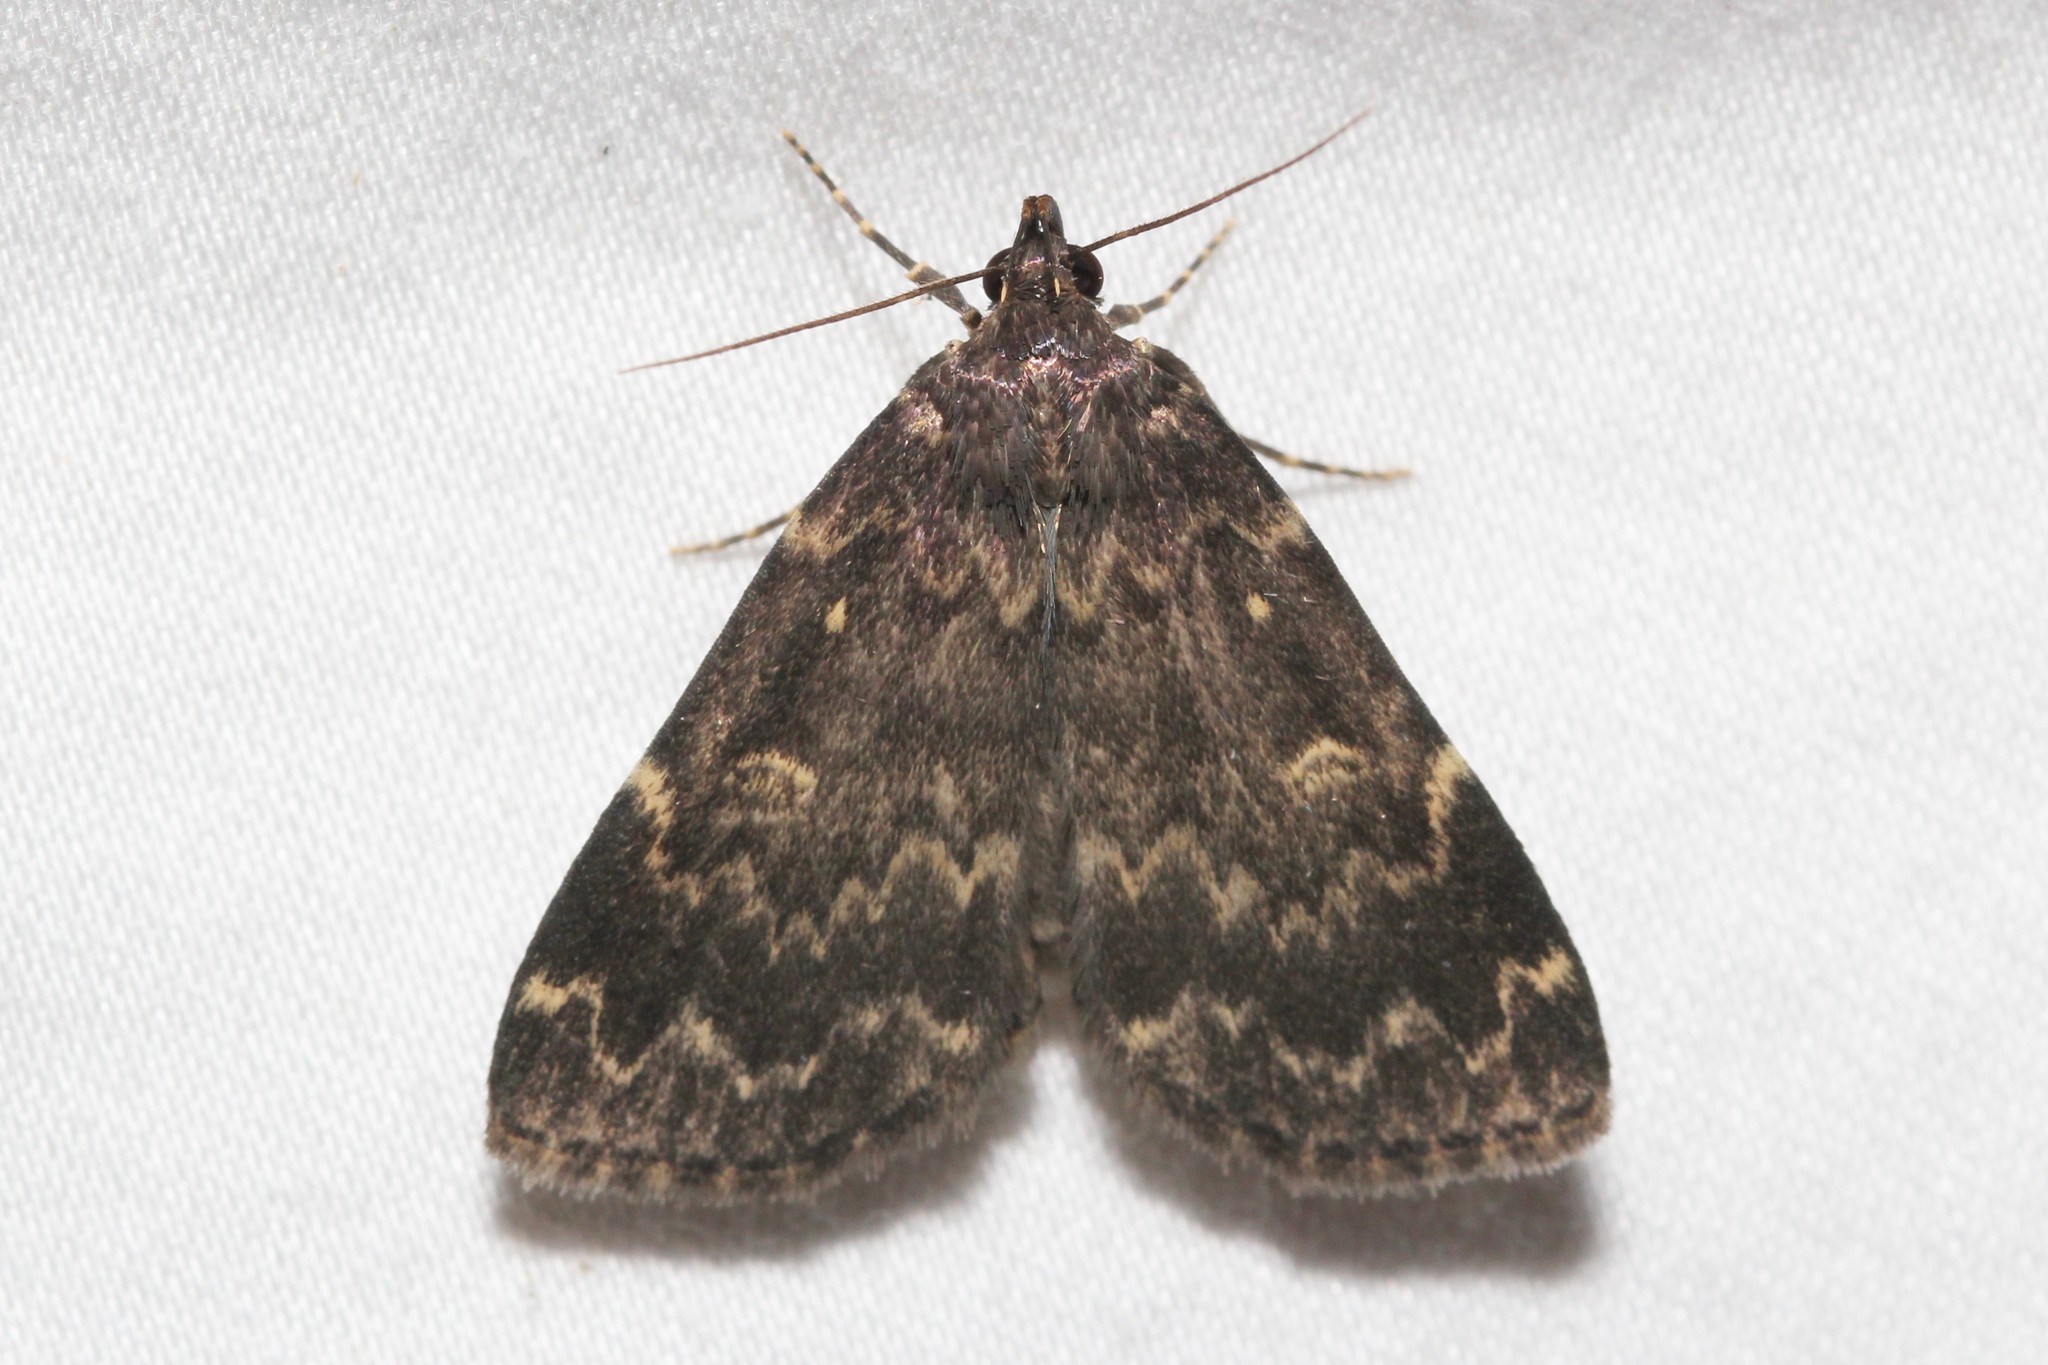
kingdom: Animalia
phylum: Arthropoda
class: Insecta
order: Lepidoptera
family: Erebidae
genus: Idia
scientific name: Idia lubricalis
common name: Twin-striped tabby
